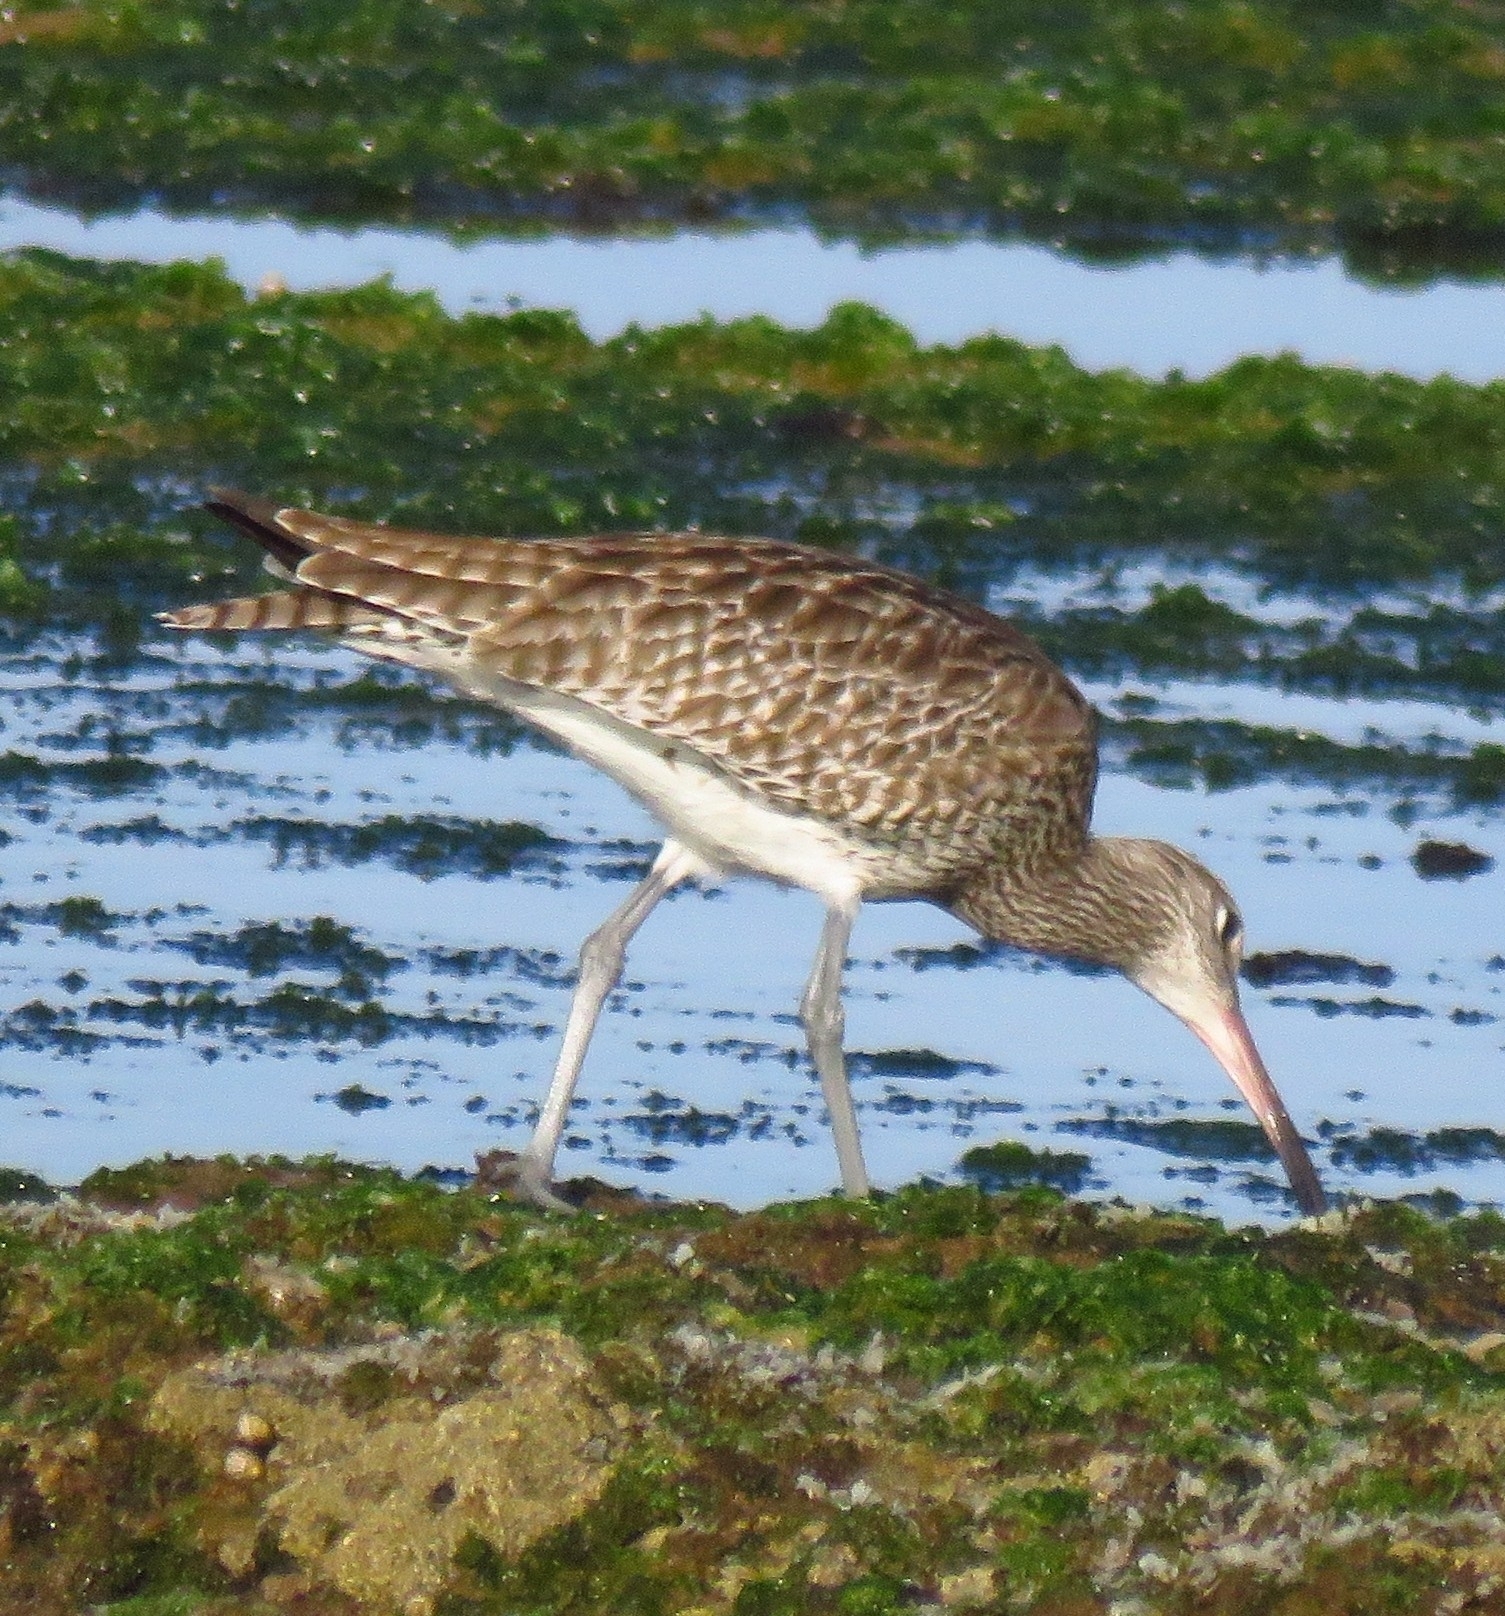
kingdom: Animalia
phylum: Chordata
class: Aves
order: Charadriiformes
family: Scolopacidae
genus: Numenius
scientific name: Numenius phaeopus
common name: Whimbrel
